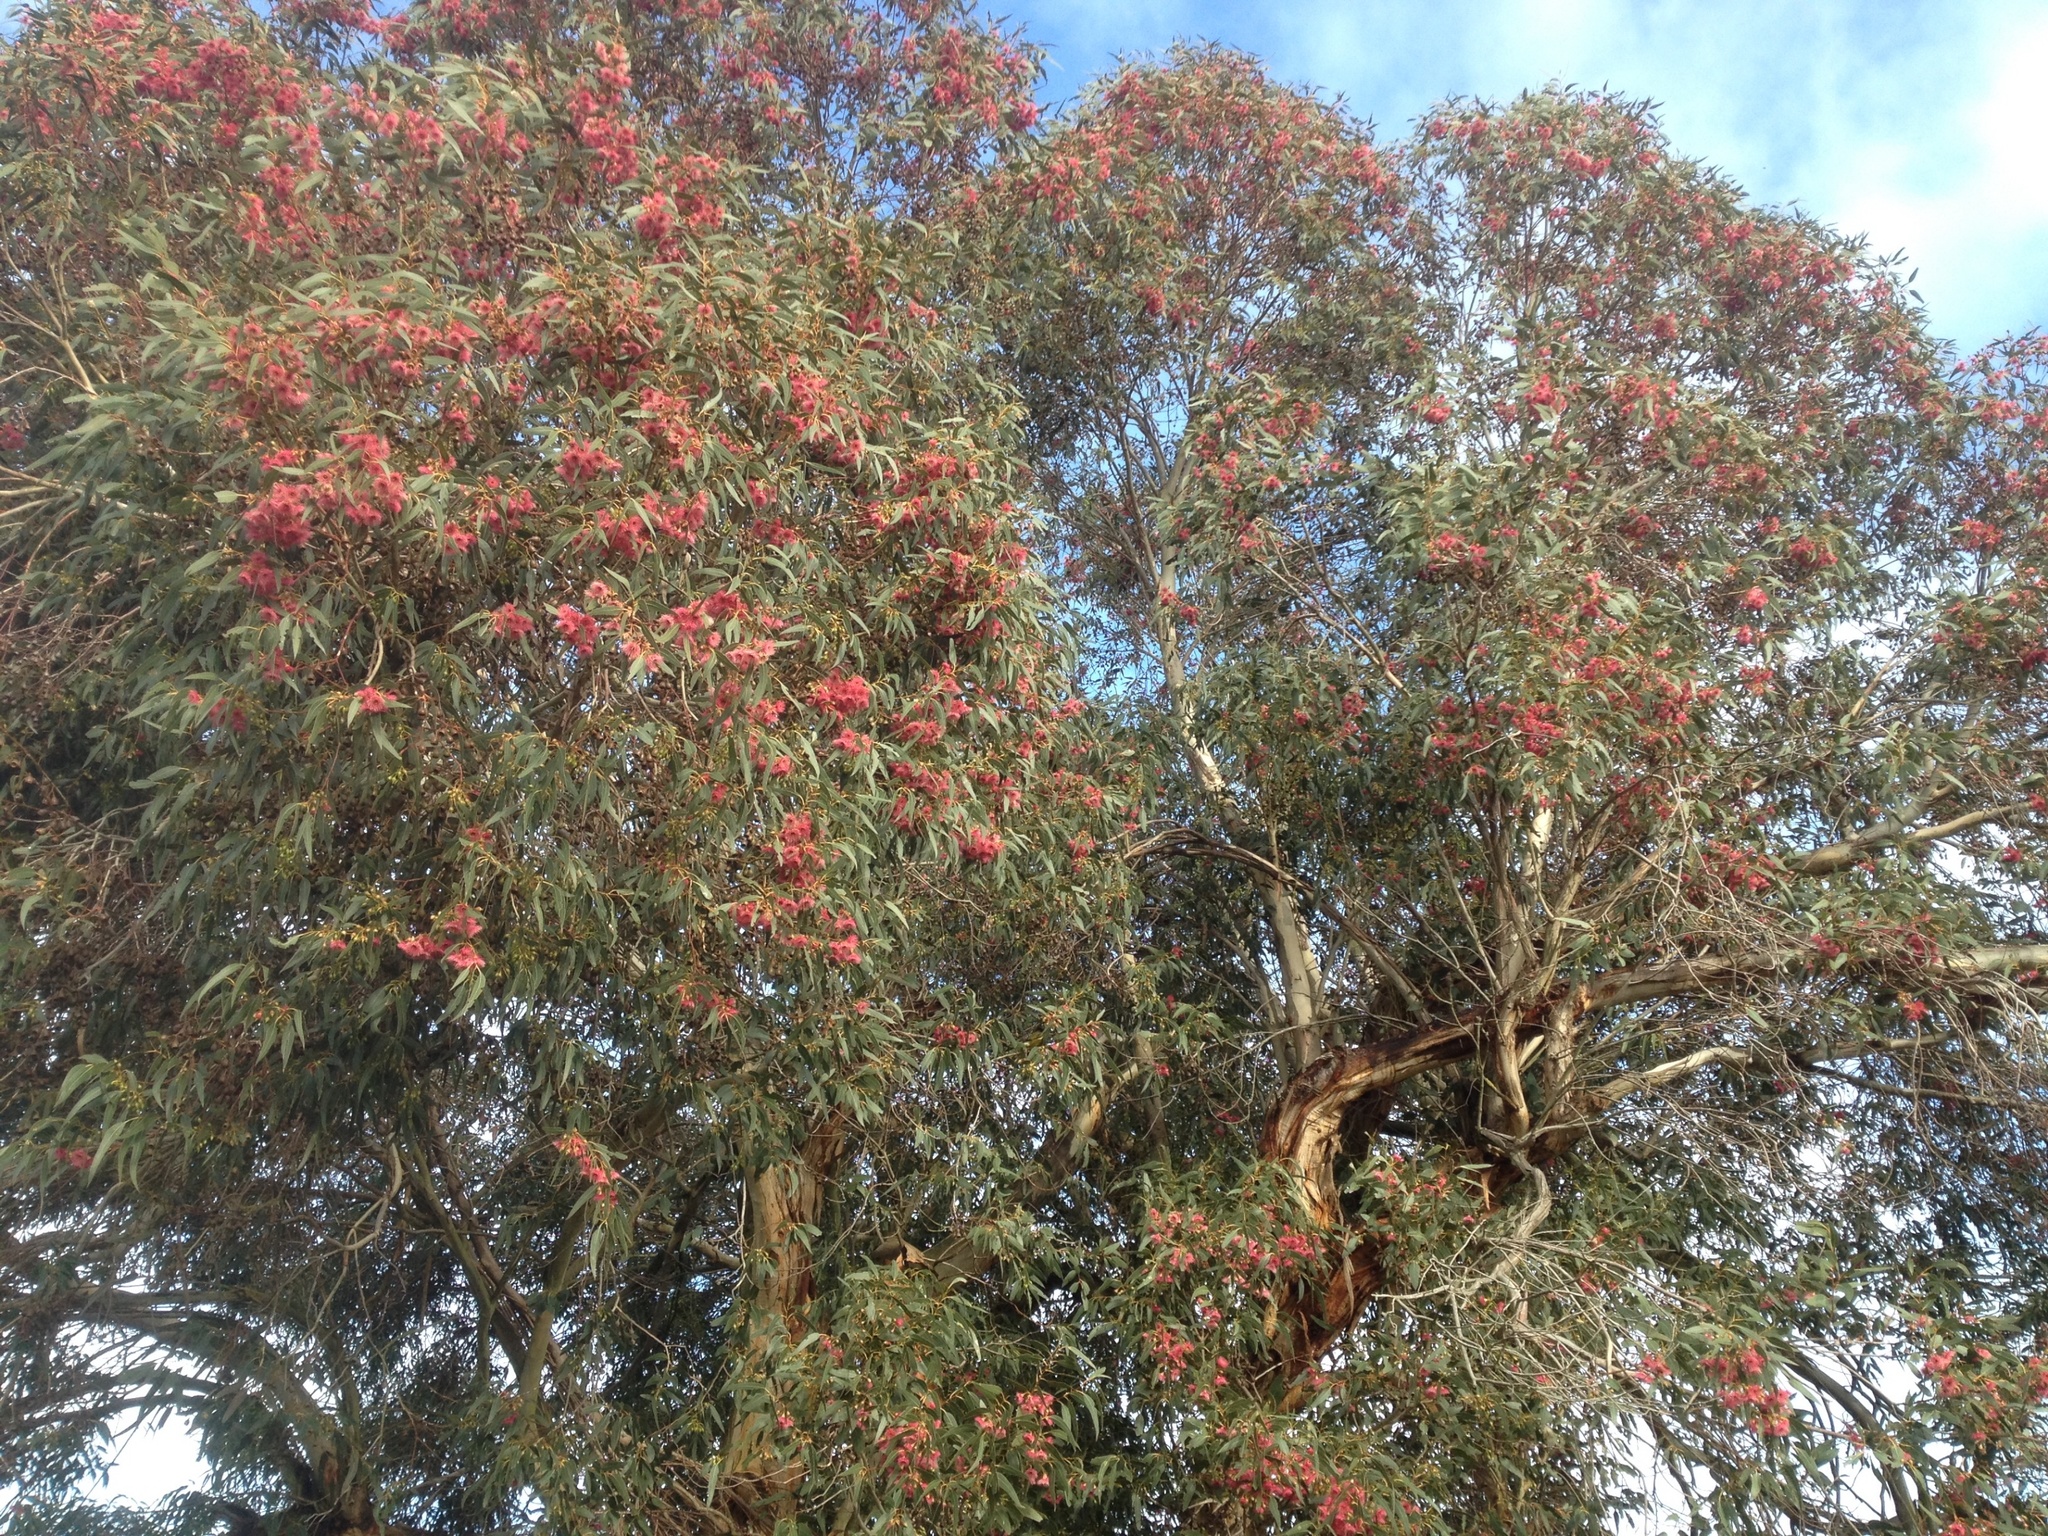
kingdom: Animalia
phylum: Chordata
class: Aves
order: Passeriformes
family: Meliphagidae
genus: Anthornis
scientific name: Anthornis melanura
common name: New zealand bellbird
